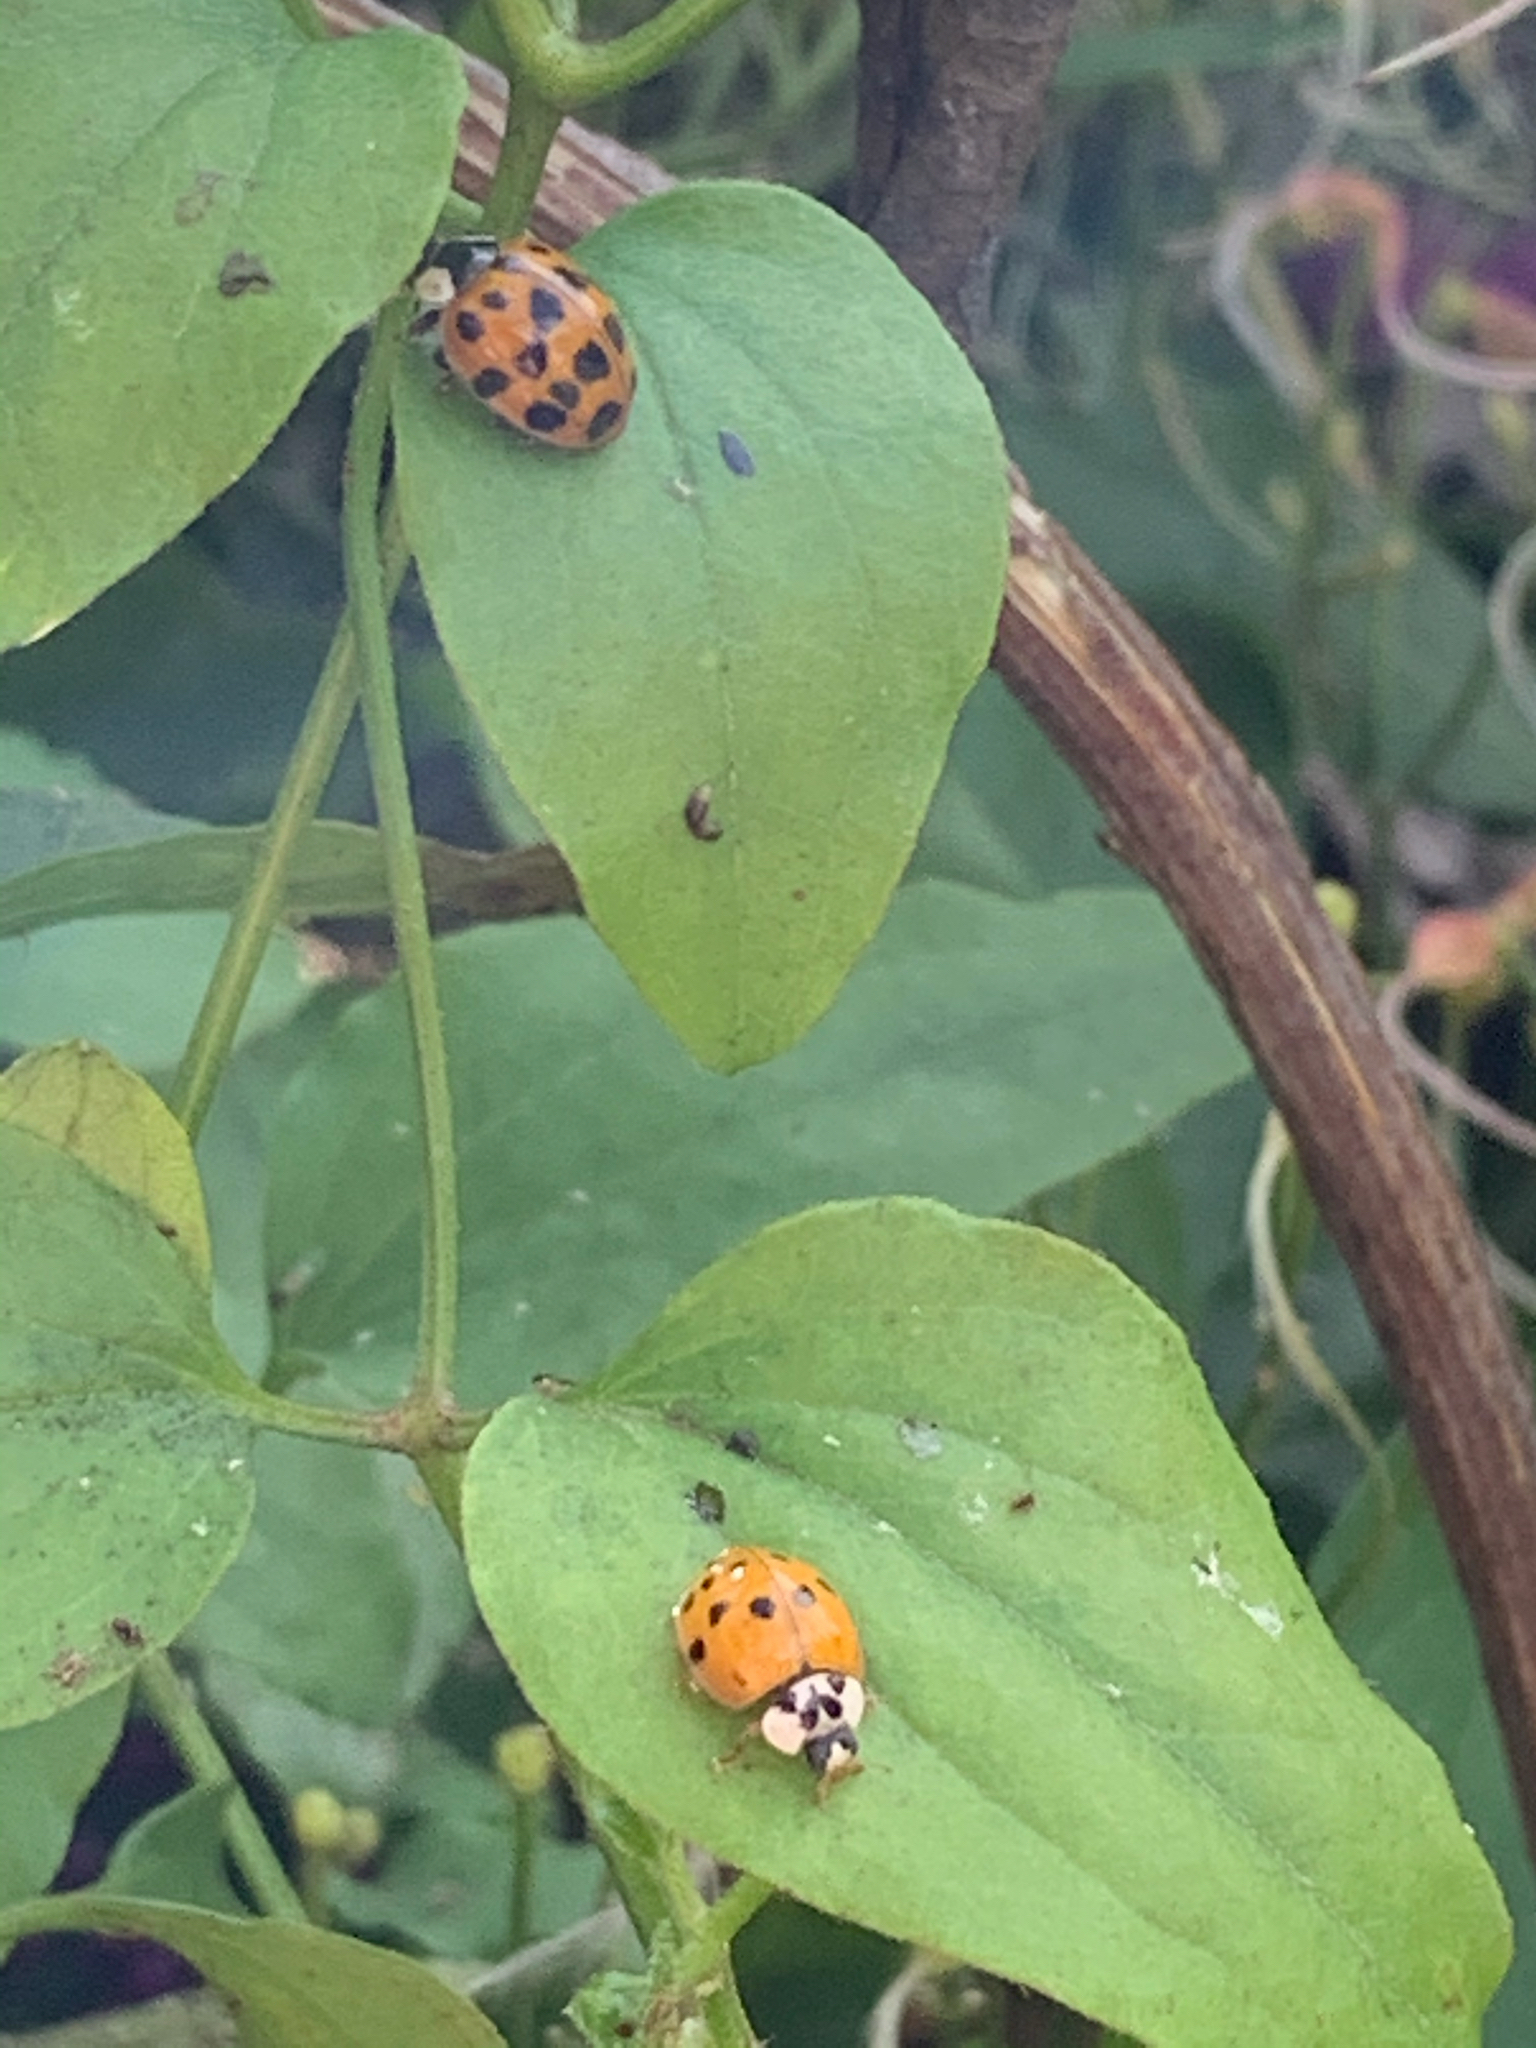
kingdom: Animalia
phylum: Arthropoda
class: Insecta
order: Coleoptera
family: Coccinellidae
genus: Harmonia
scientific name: Harmonia axyridis
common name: Harlequin ladybird
